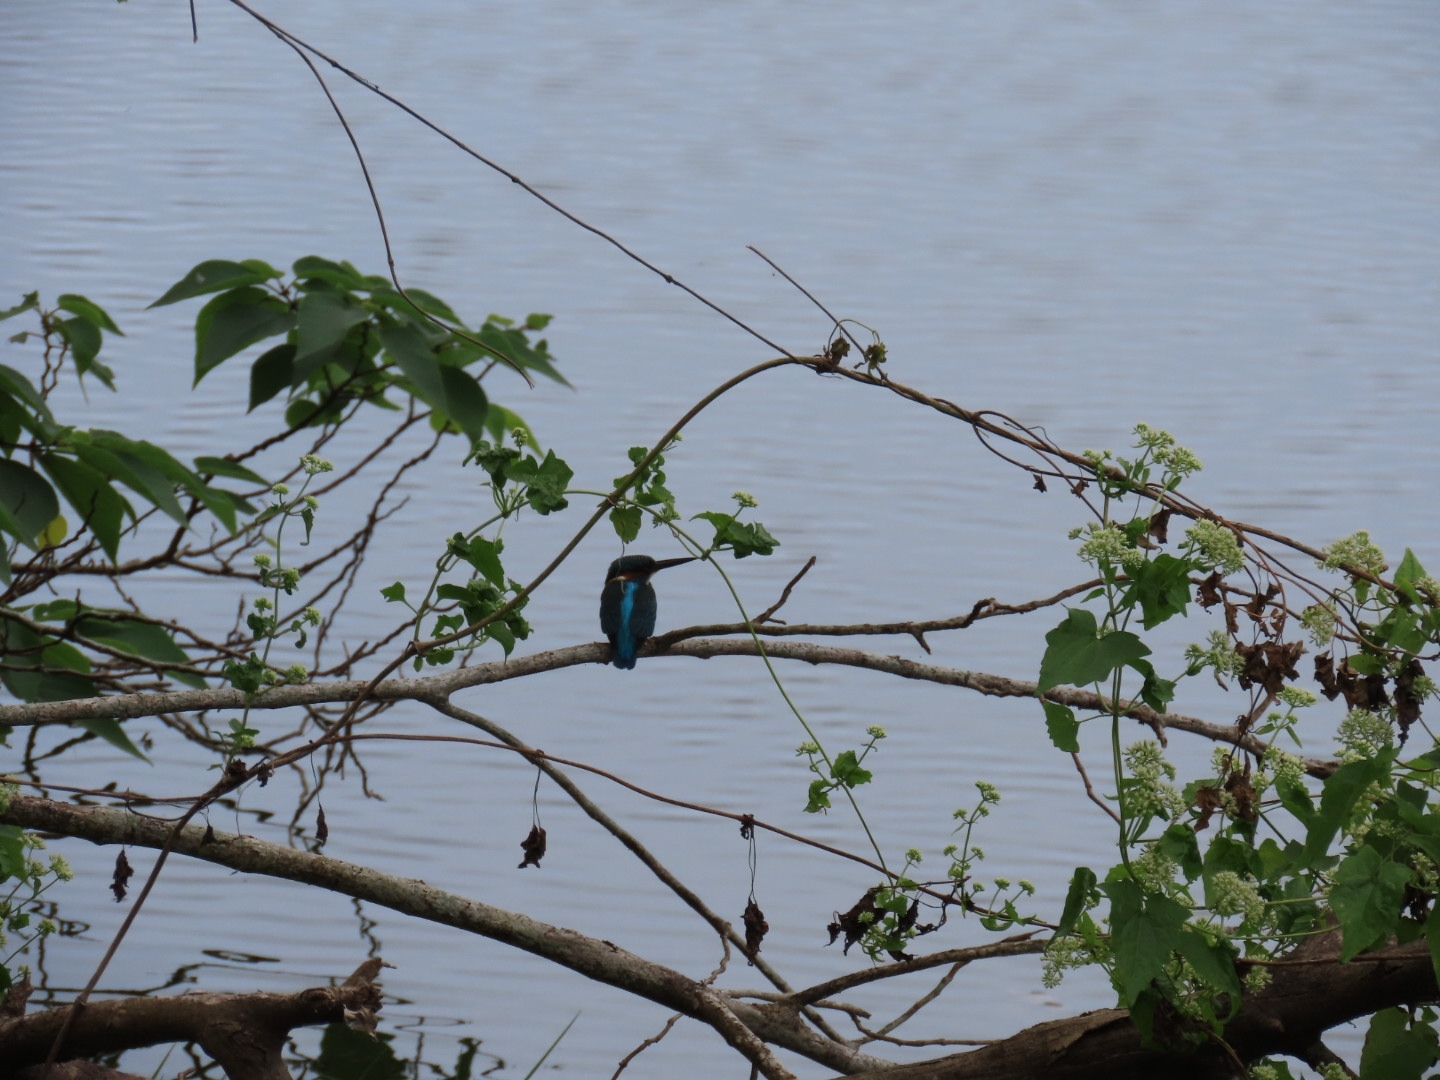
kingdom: Animalia
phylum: Chordata
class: Aves
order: Coraciiformes
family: Alcedinidae
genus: Alcedo
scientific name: Alcedo atthis
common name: Common kingfisher
